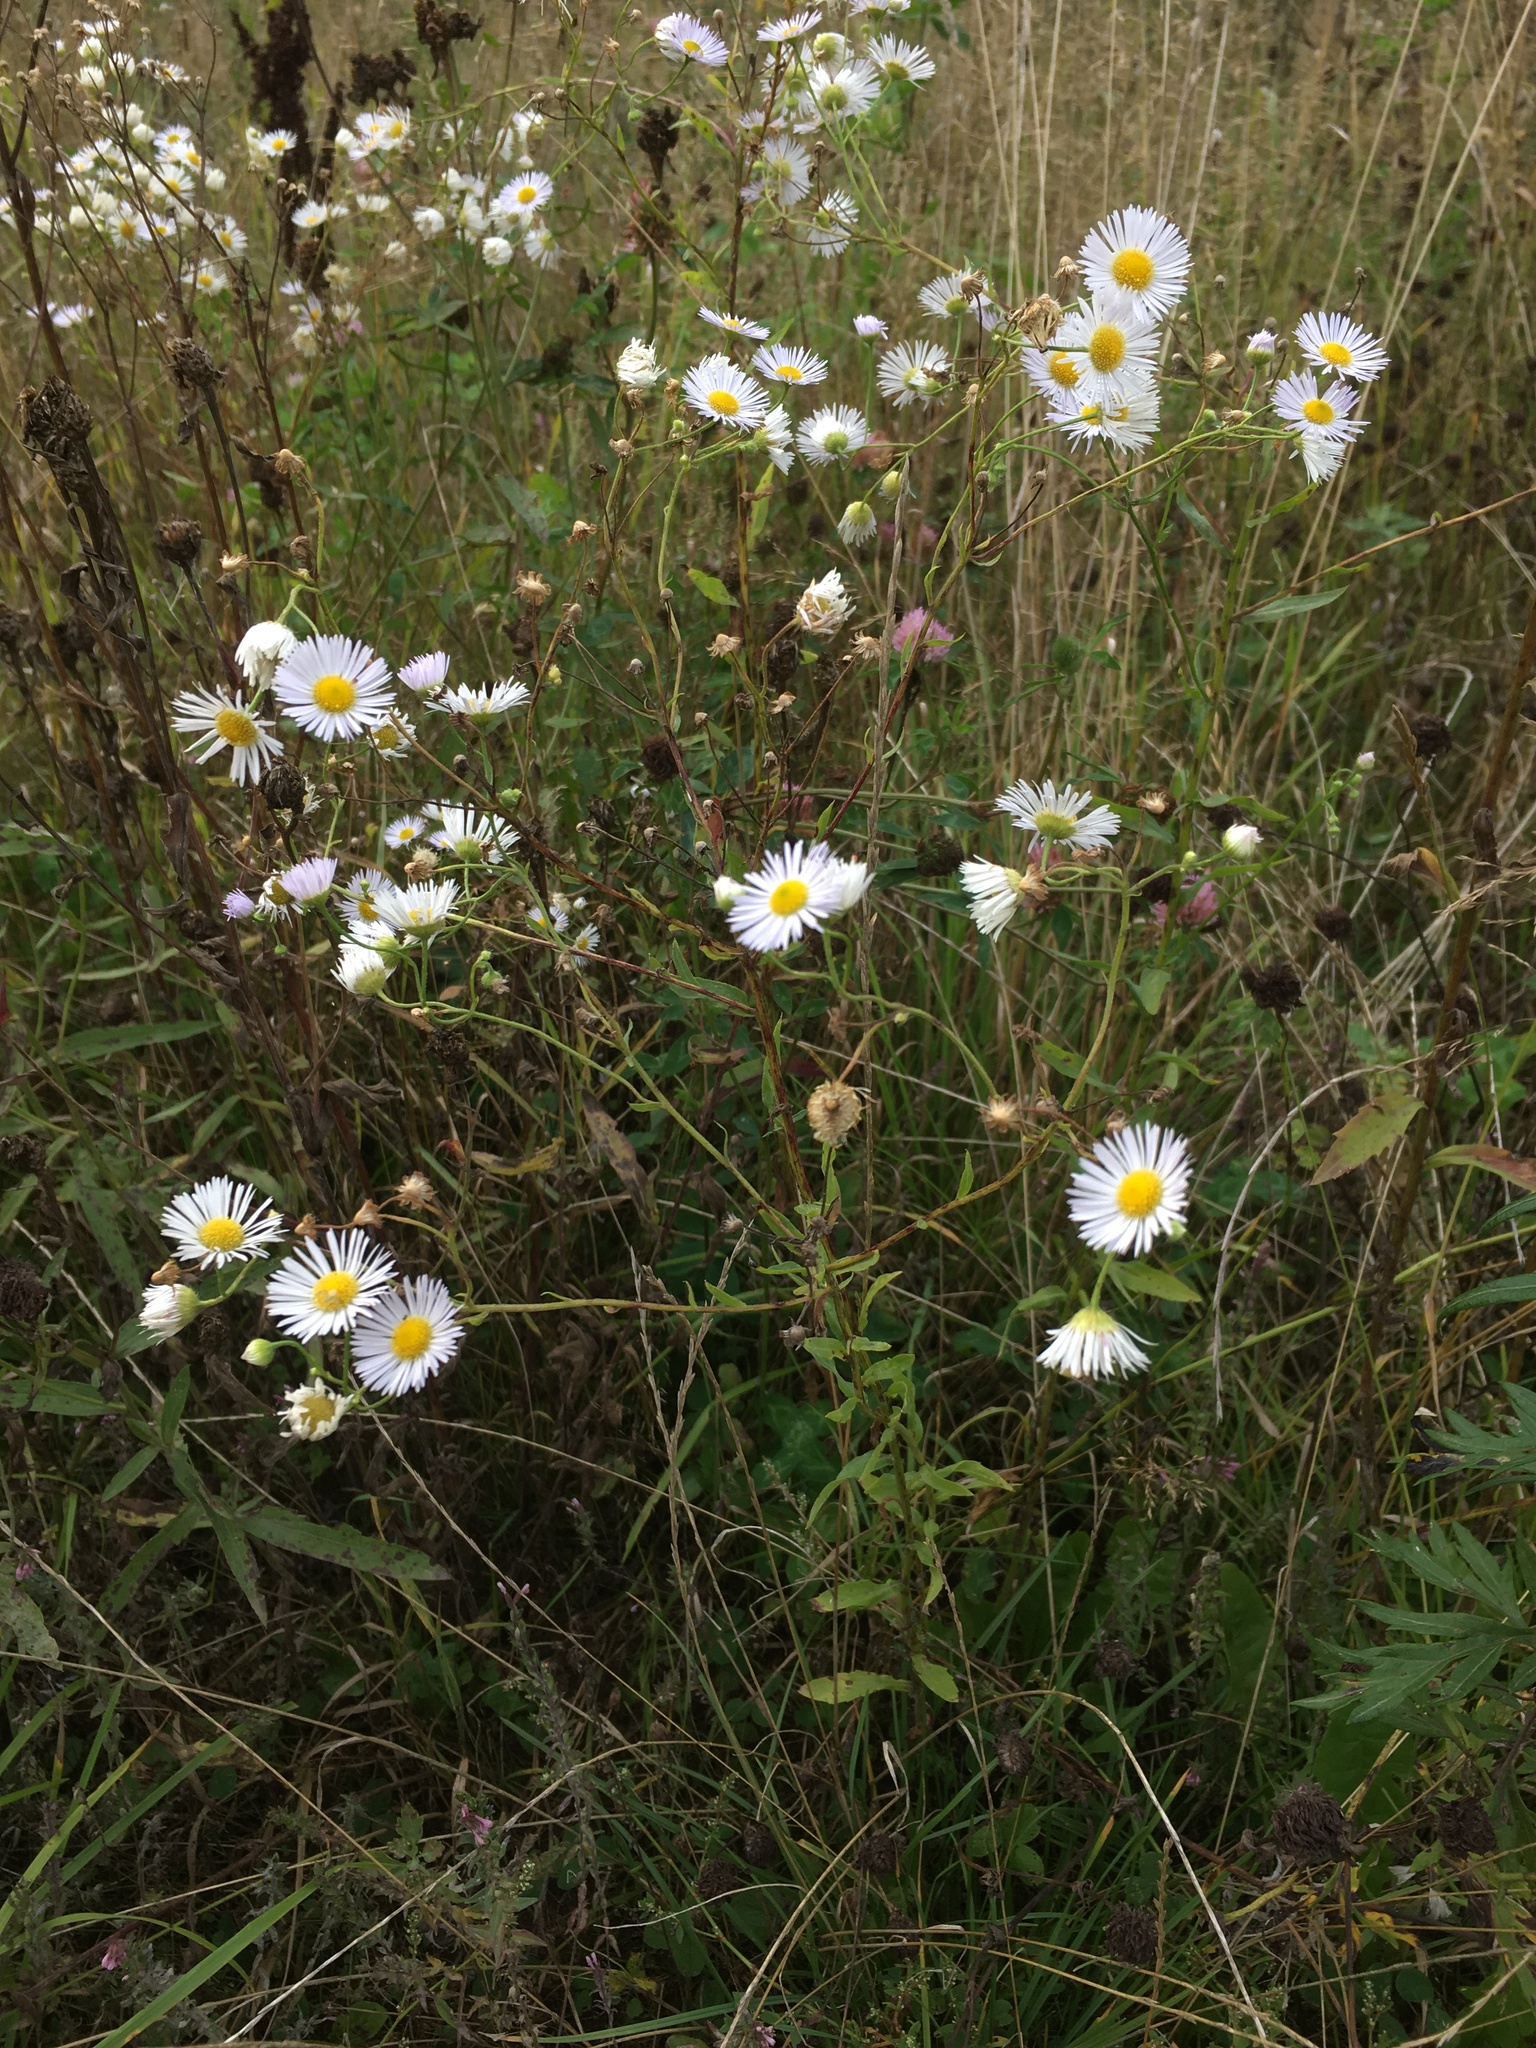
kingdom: Plantae
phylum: Tracheophyta
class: Magnoliopsida
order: Asterales
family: Asteraceae
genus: Erigeron
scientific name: Erigeron annuus
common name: Tall fleabane
